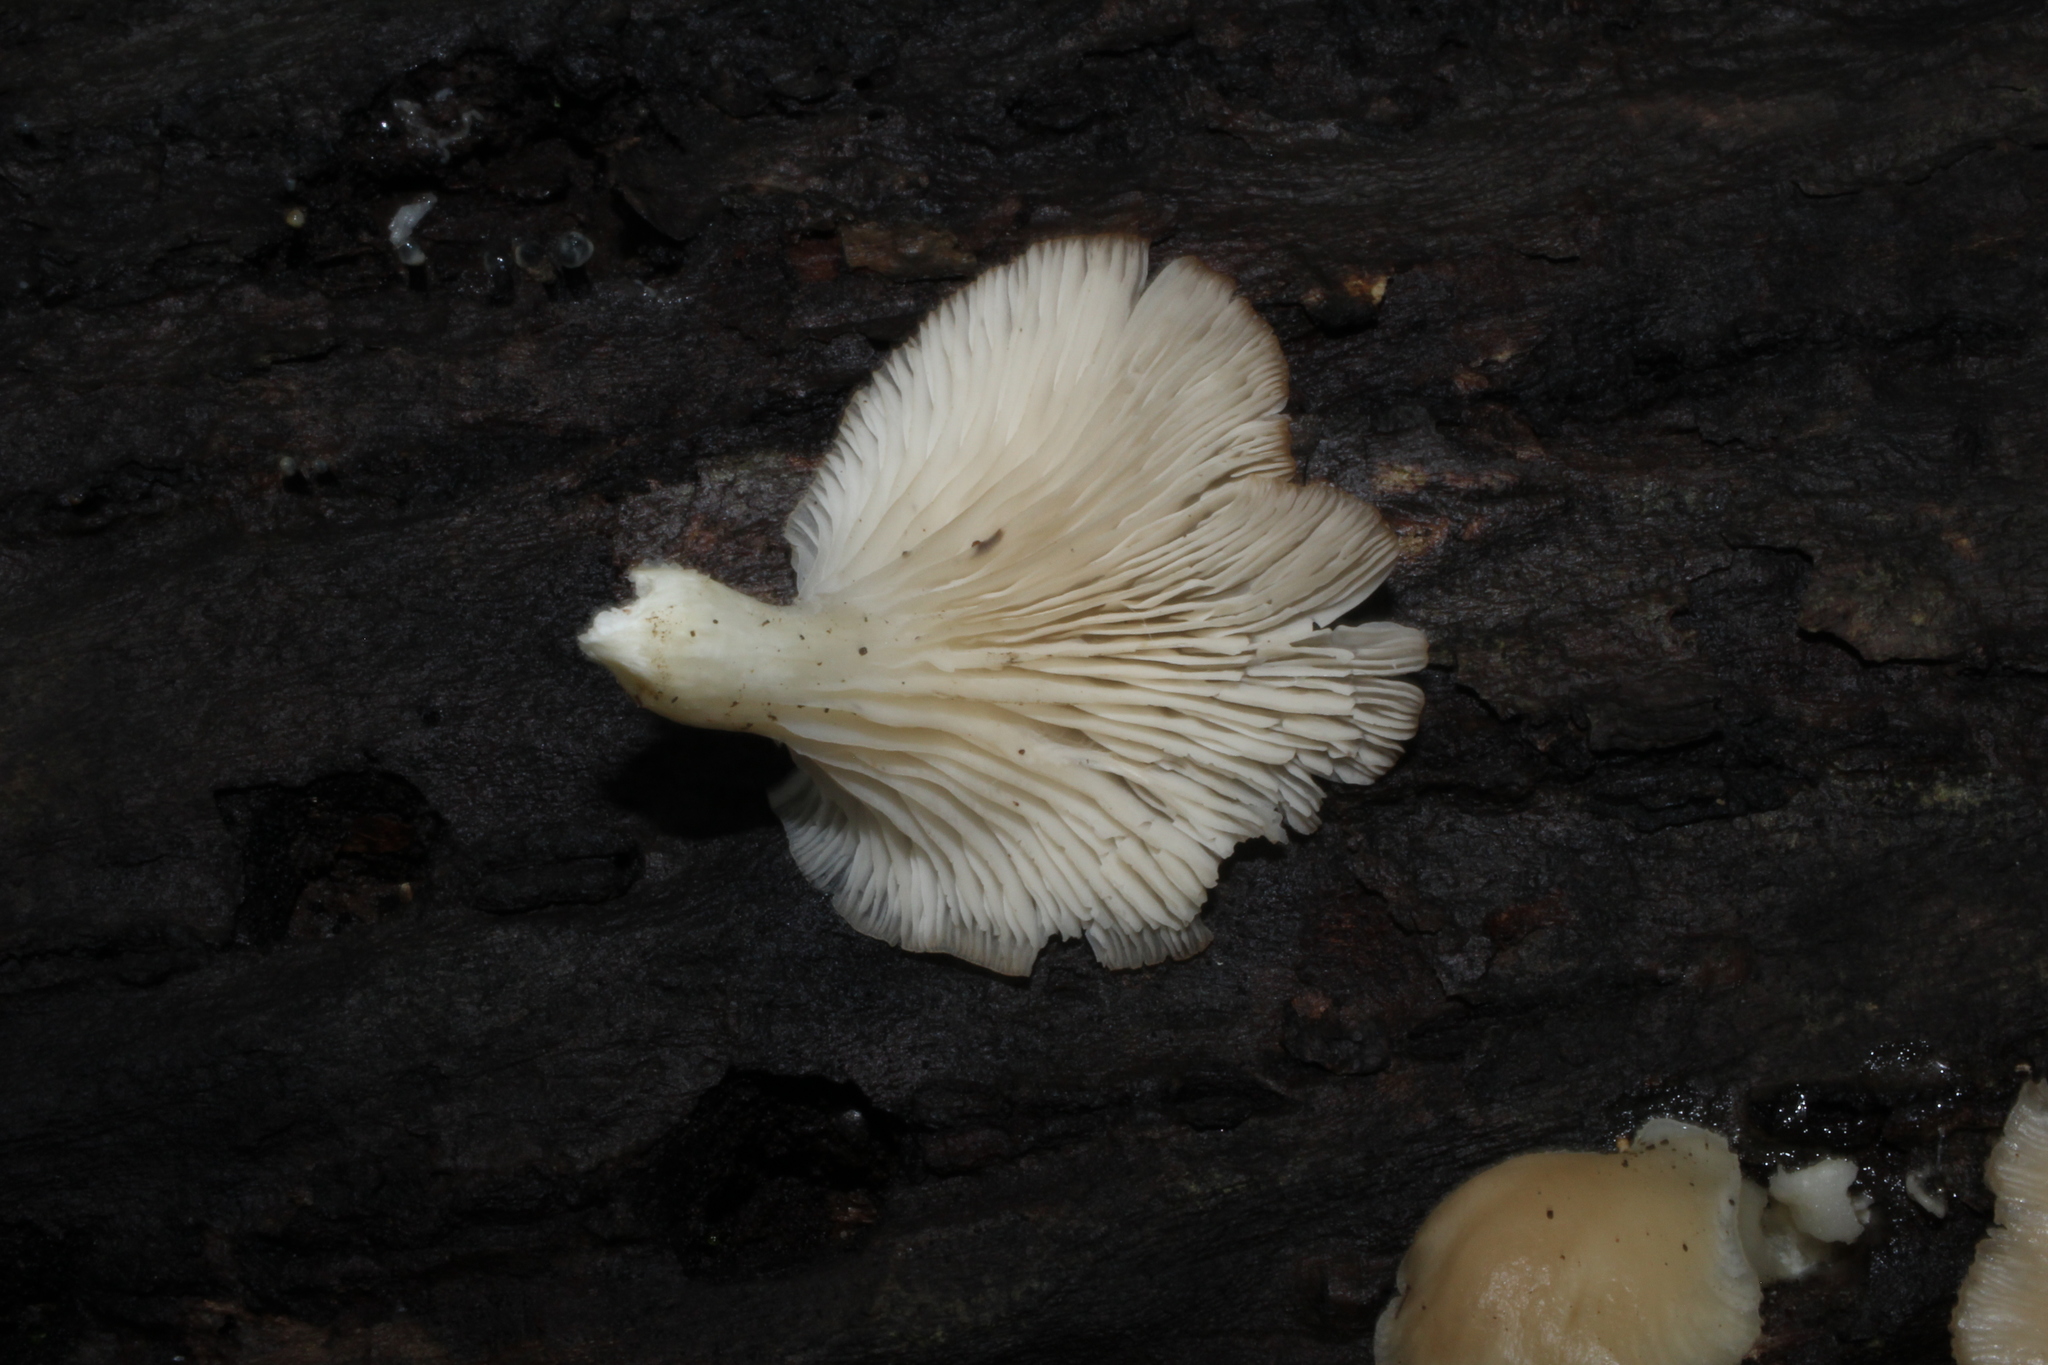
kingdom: Fungi
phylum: Basidiomycota
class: Agaricomycetes
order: Agaricales
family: Pleurotaceae
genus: Pleurotus
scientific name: Pleurotus ostreatus
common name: Oyster mushroom
